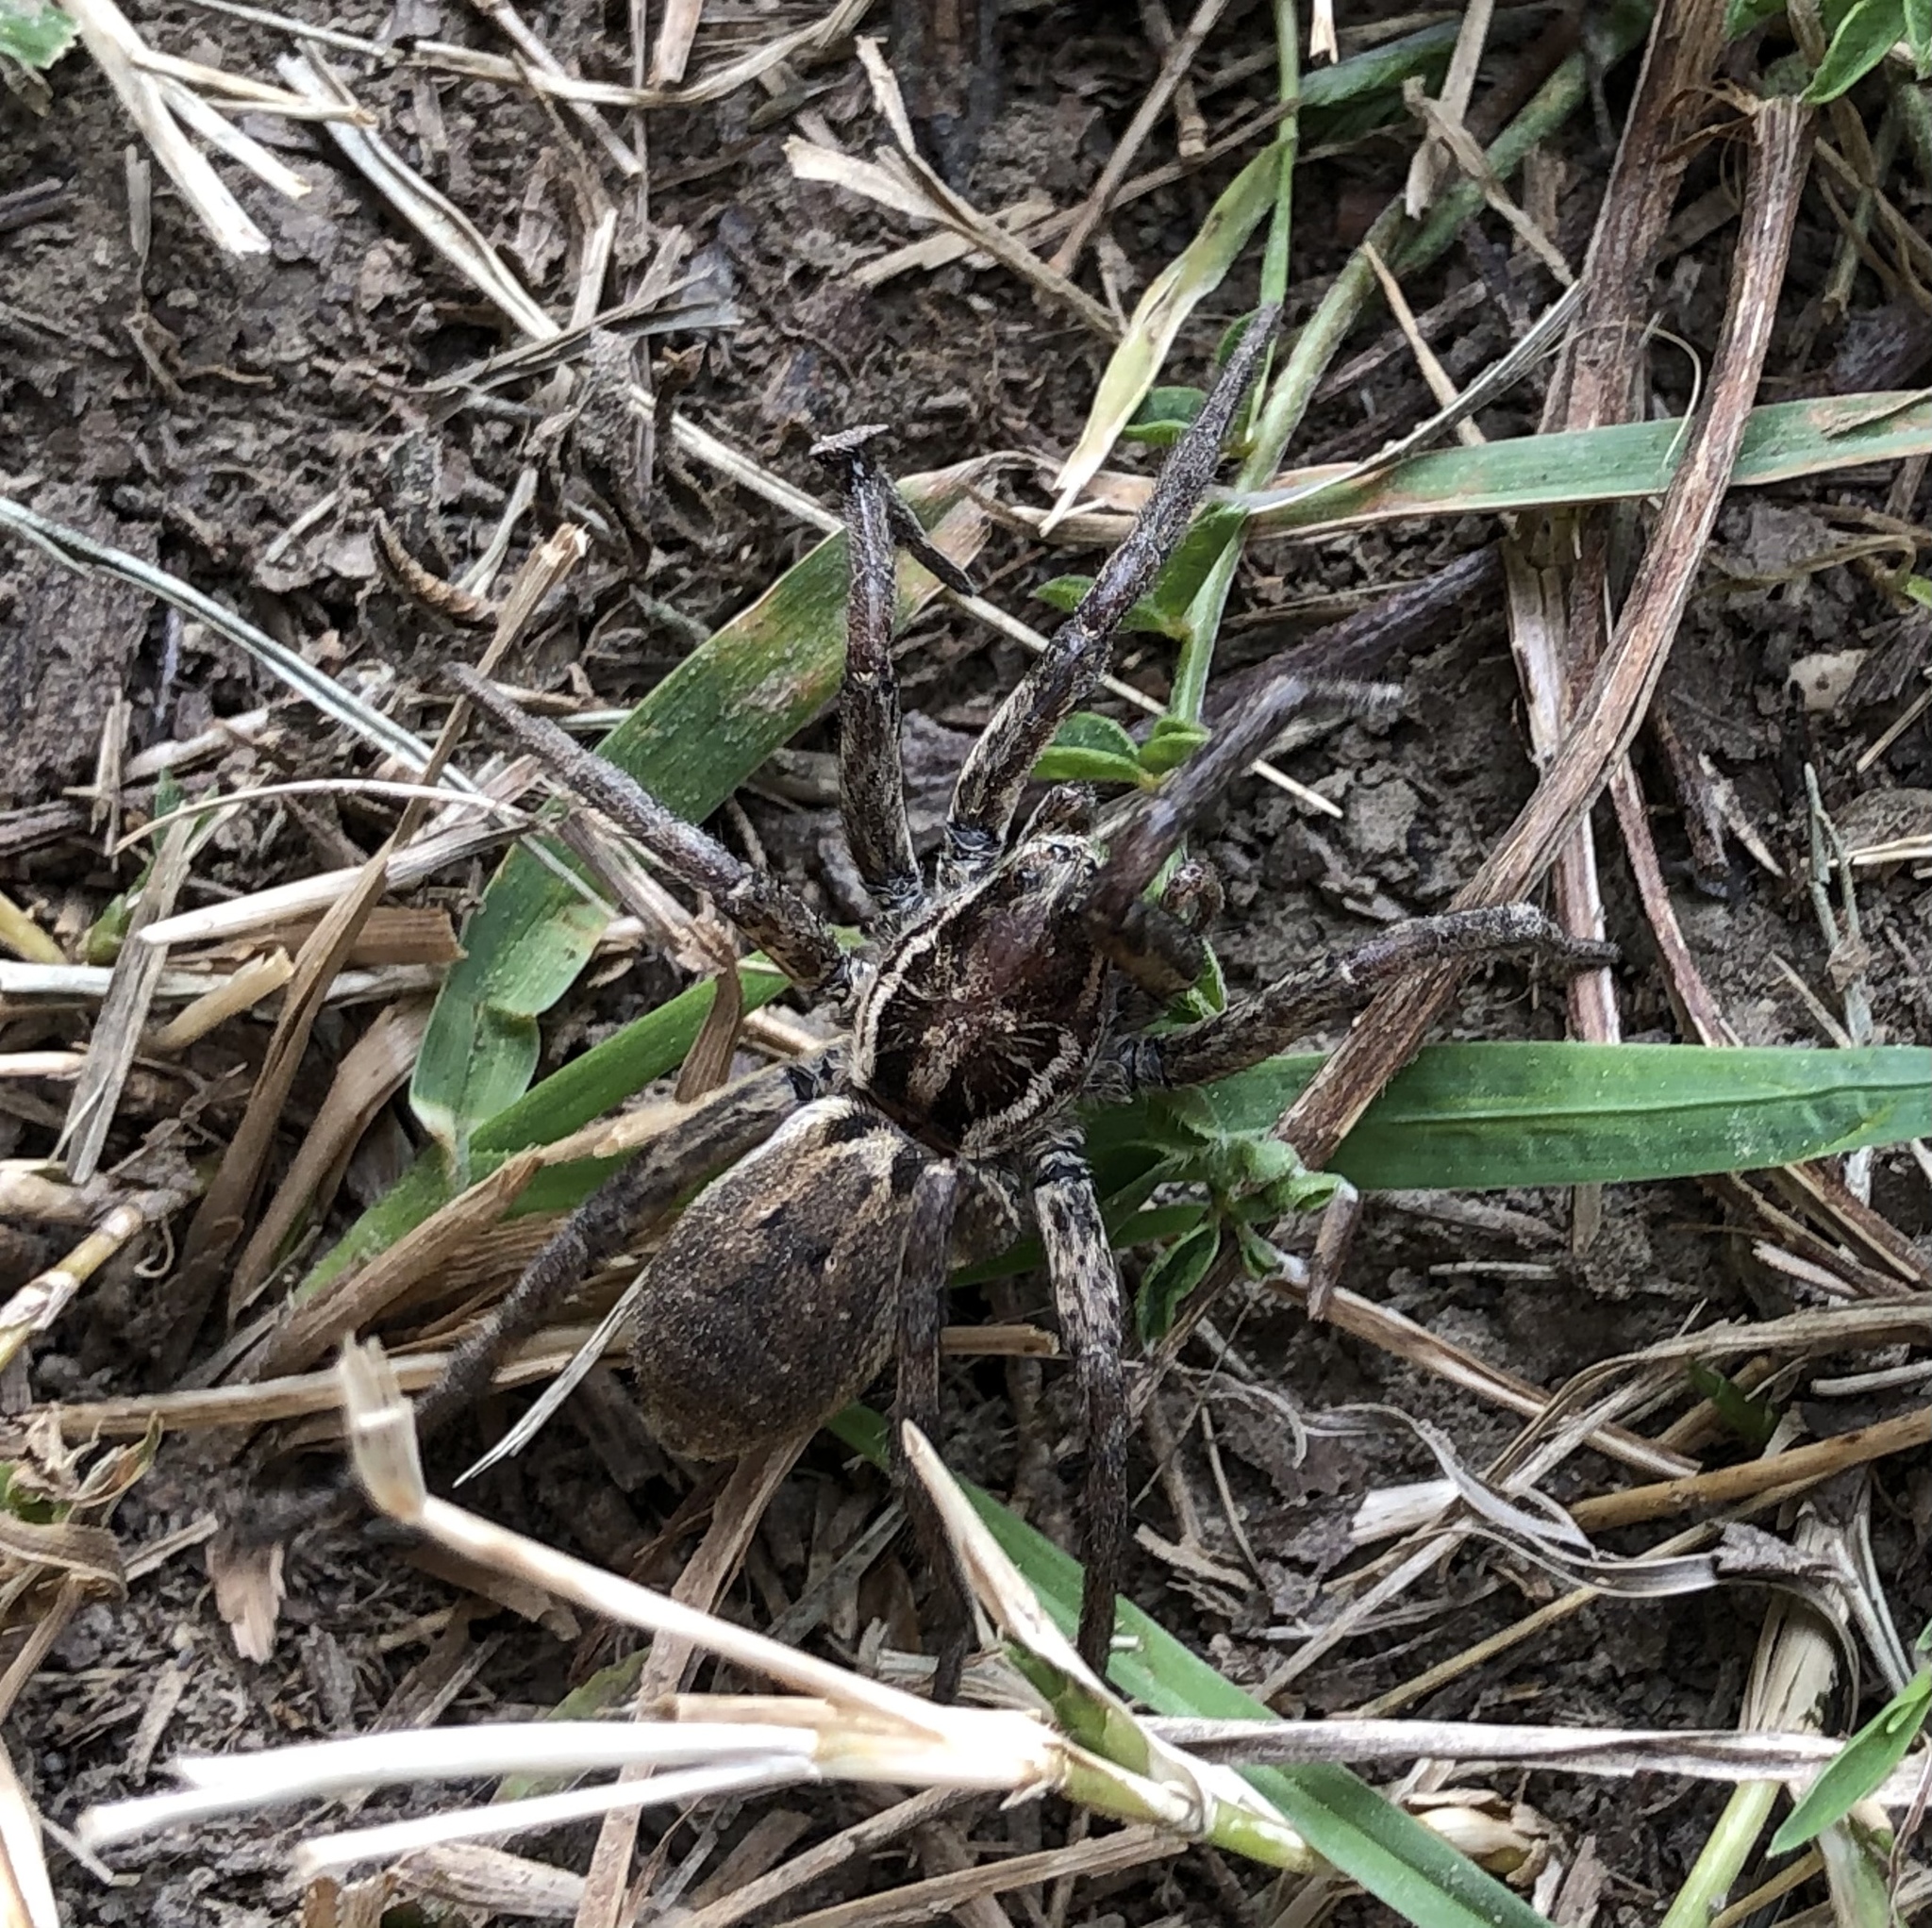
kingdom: Animalia
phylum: Arthropoda
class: Arachnida
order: Araneae
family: Lycosidae
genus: Hogna
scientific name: Hogna radiata
